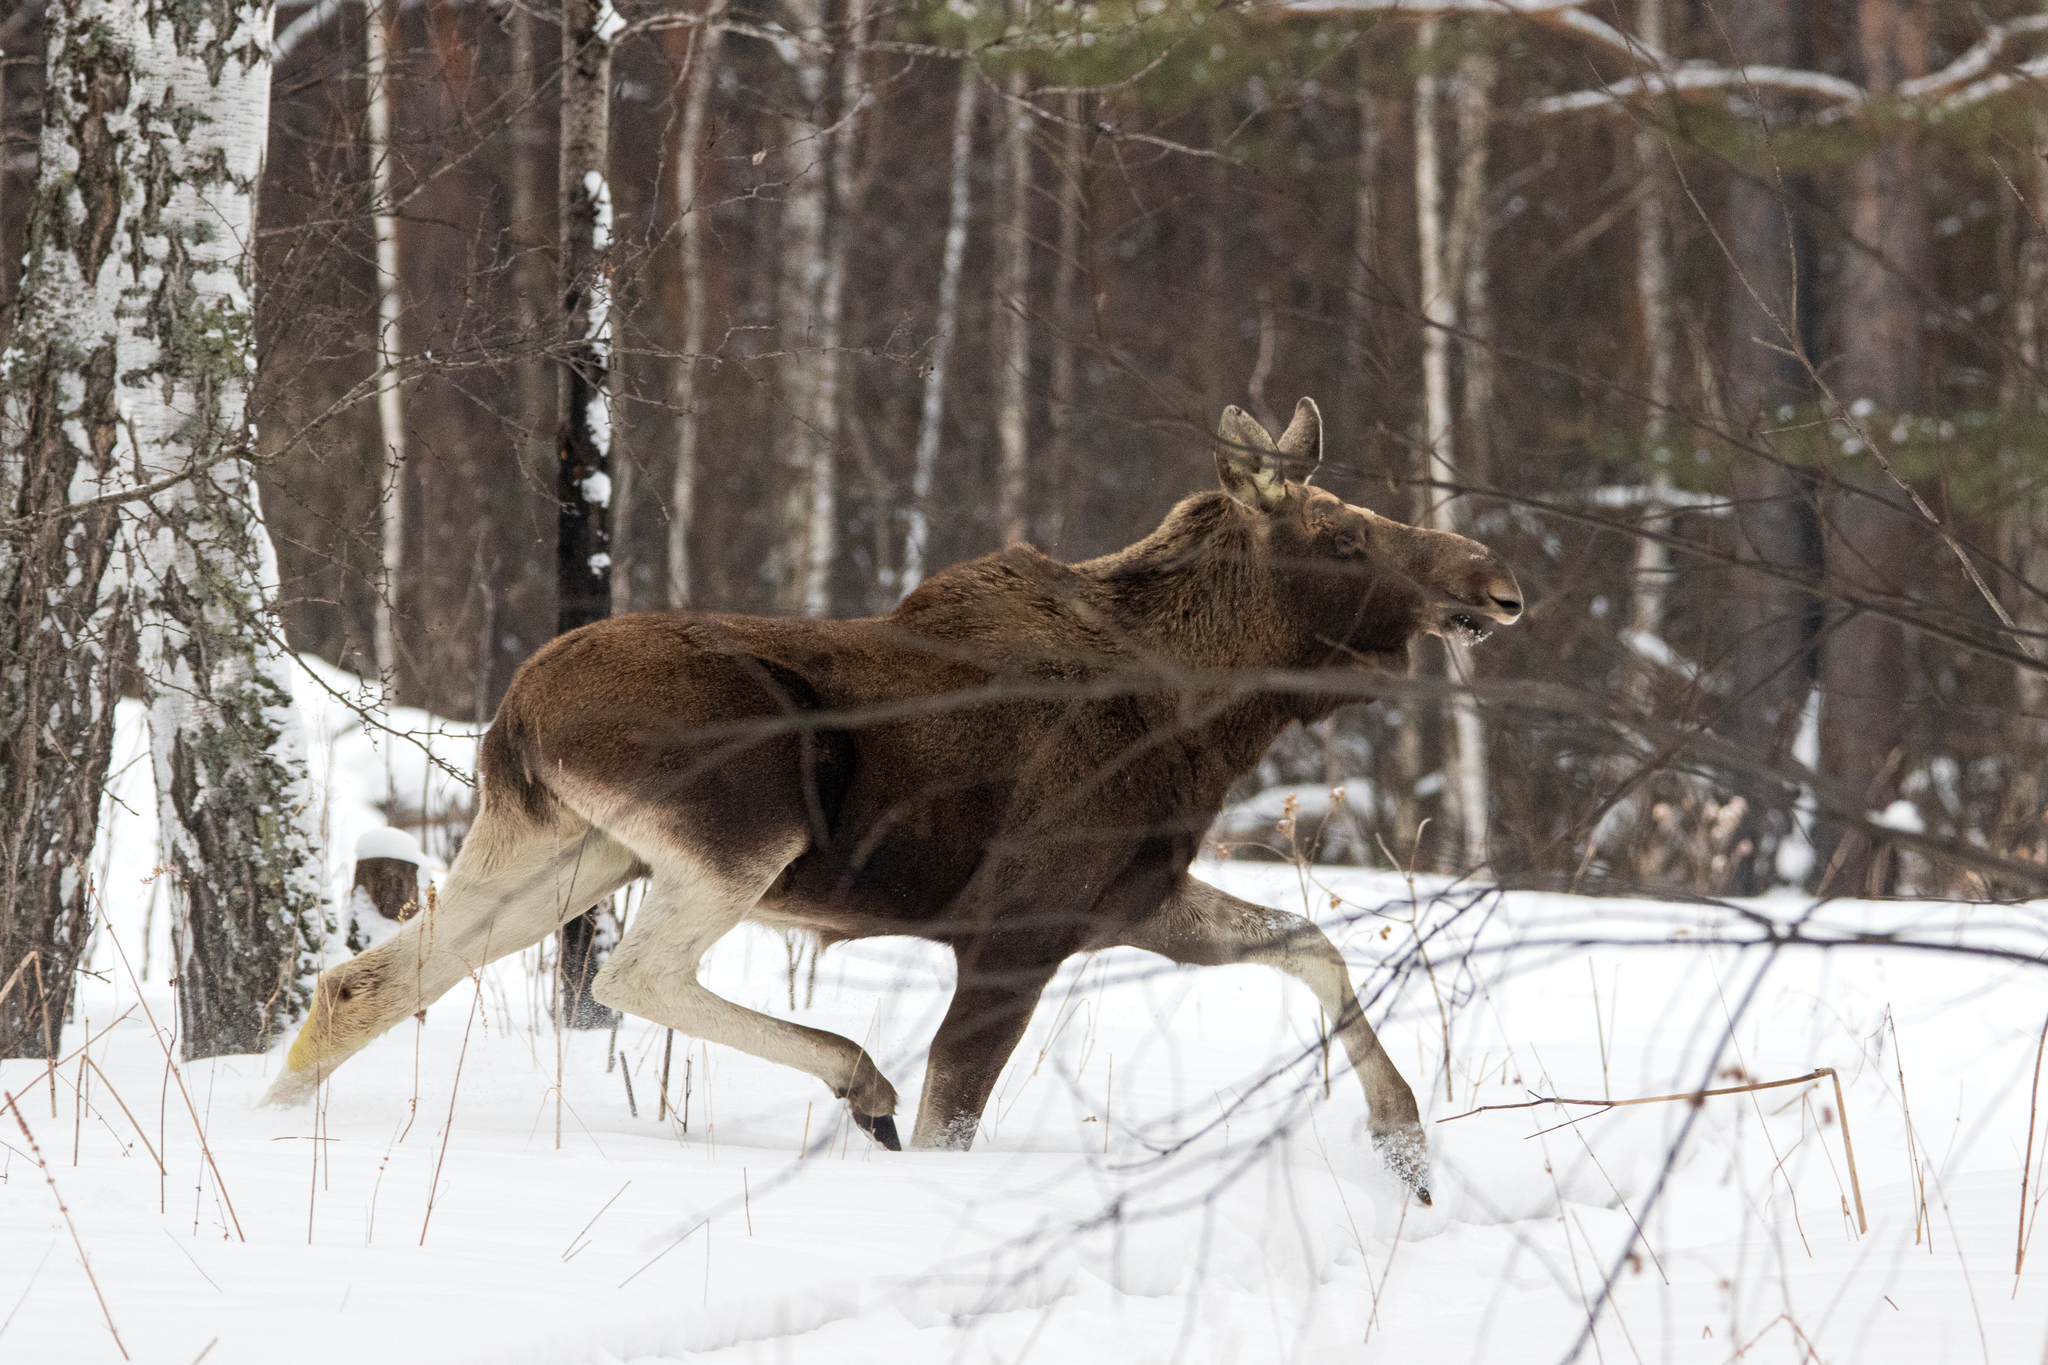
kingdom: Animalia
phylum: Chordata
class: Mammalia
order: Artiodactyla
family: Cervidae
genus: Alces
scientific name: Alces alces
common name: Moose
